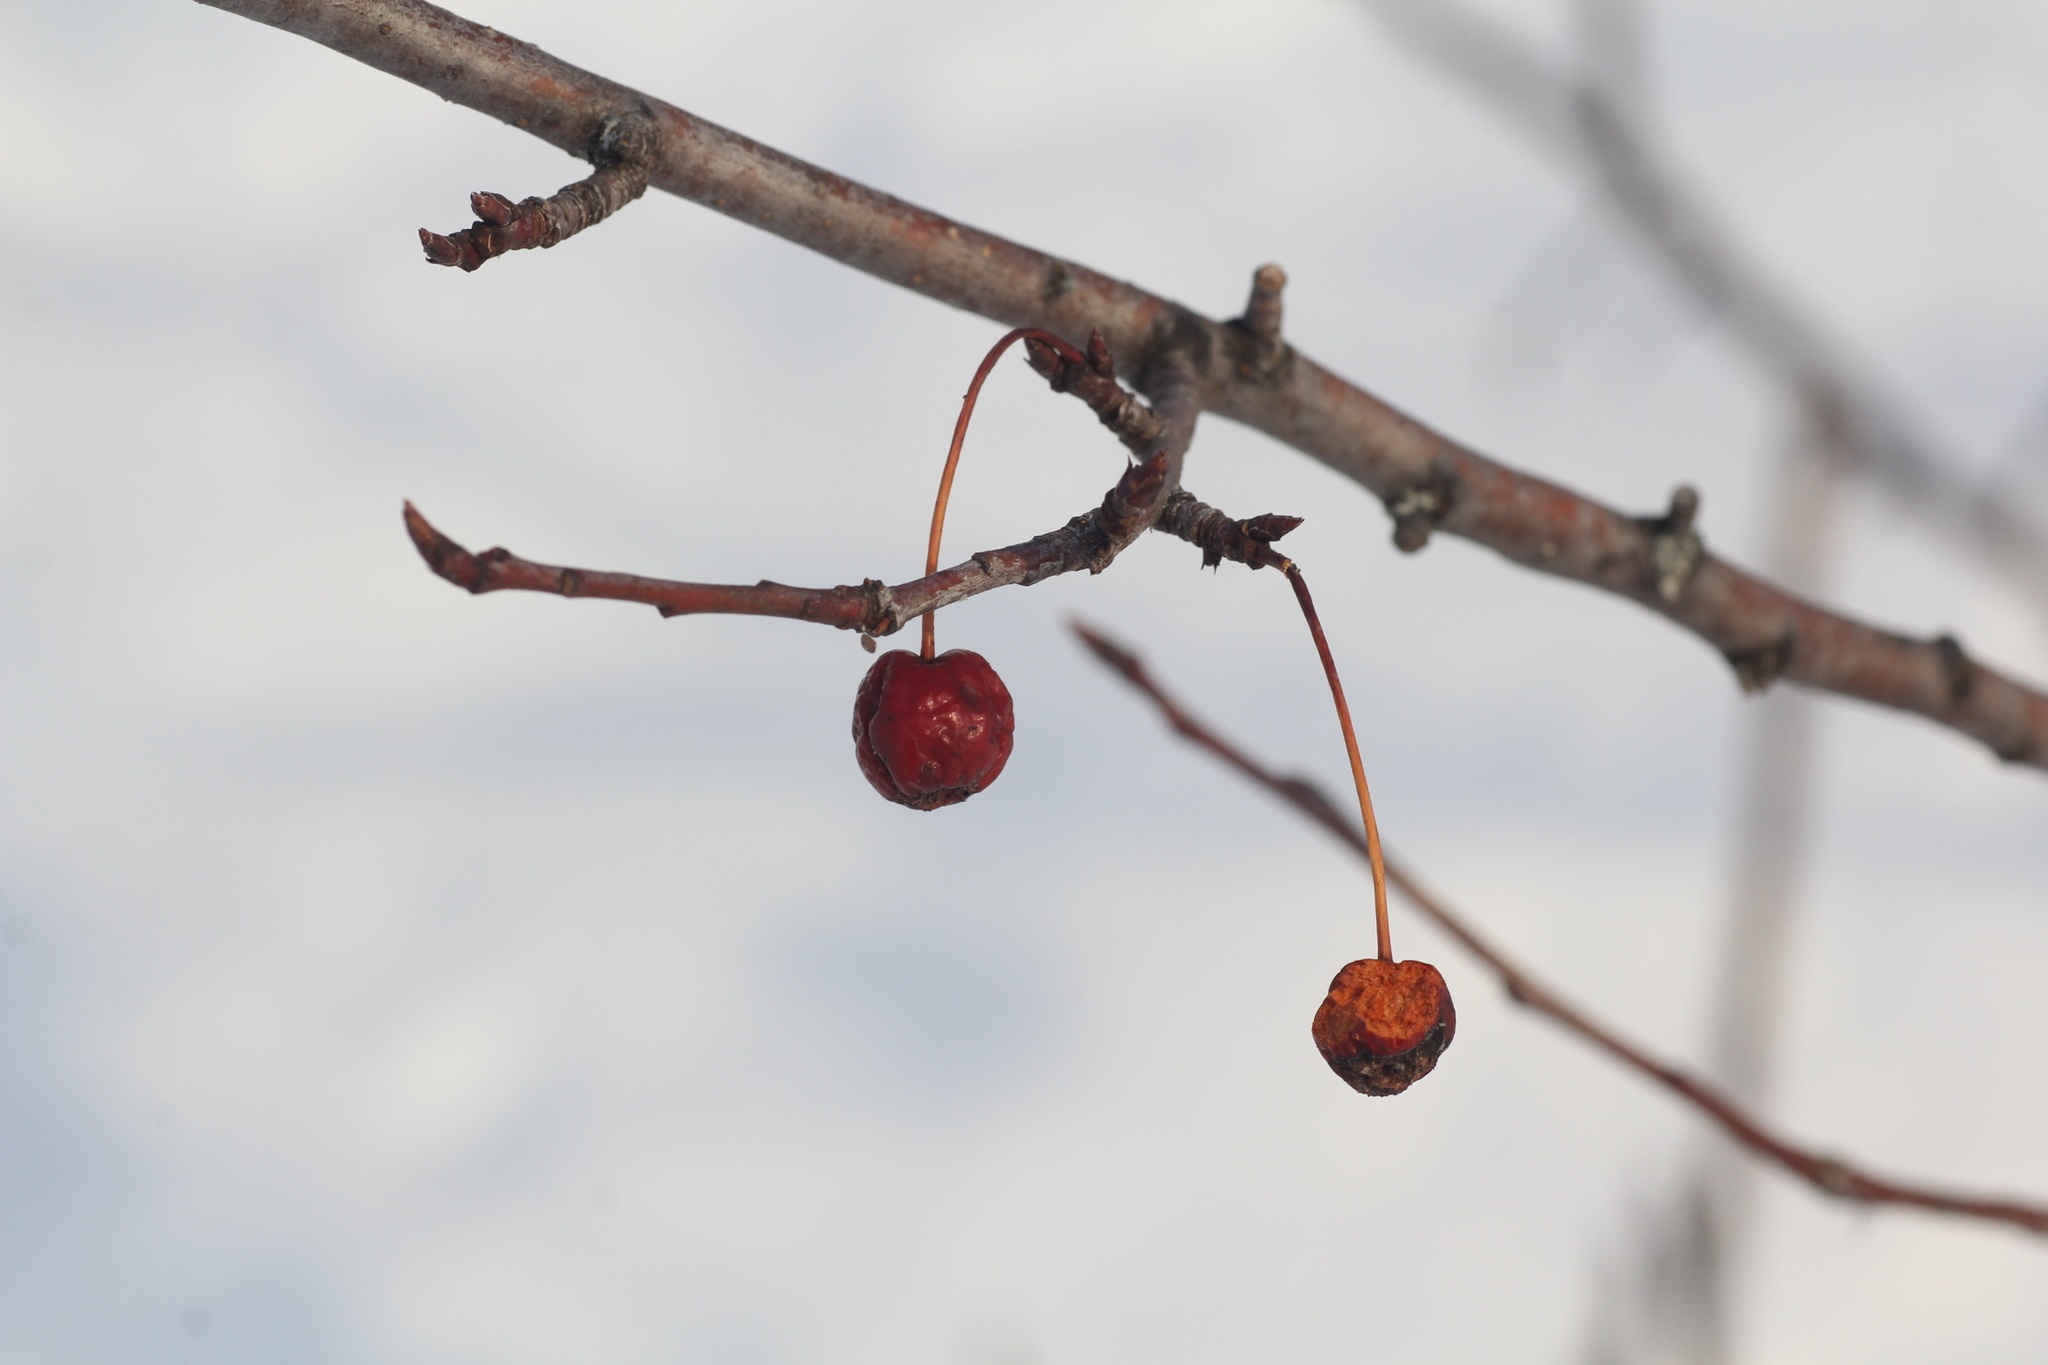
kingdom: Plantae
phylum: Tracheophyta
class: Magnoliopsida
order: Rosales
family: Rosaceae
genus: Malus
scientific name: Malus baccata
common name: Siberian crab
